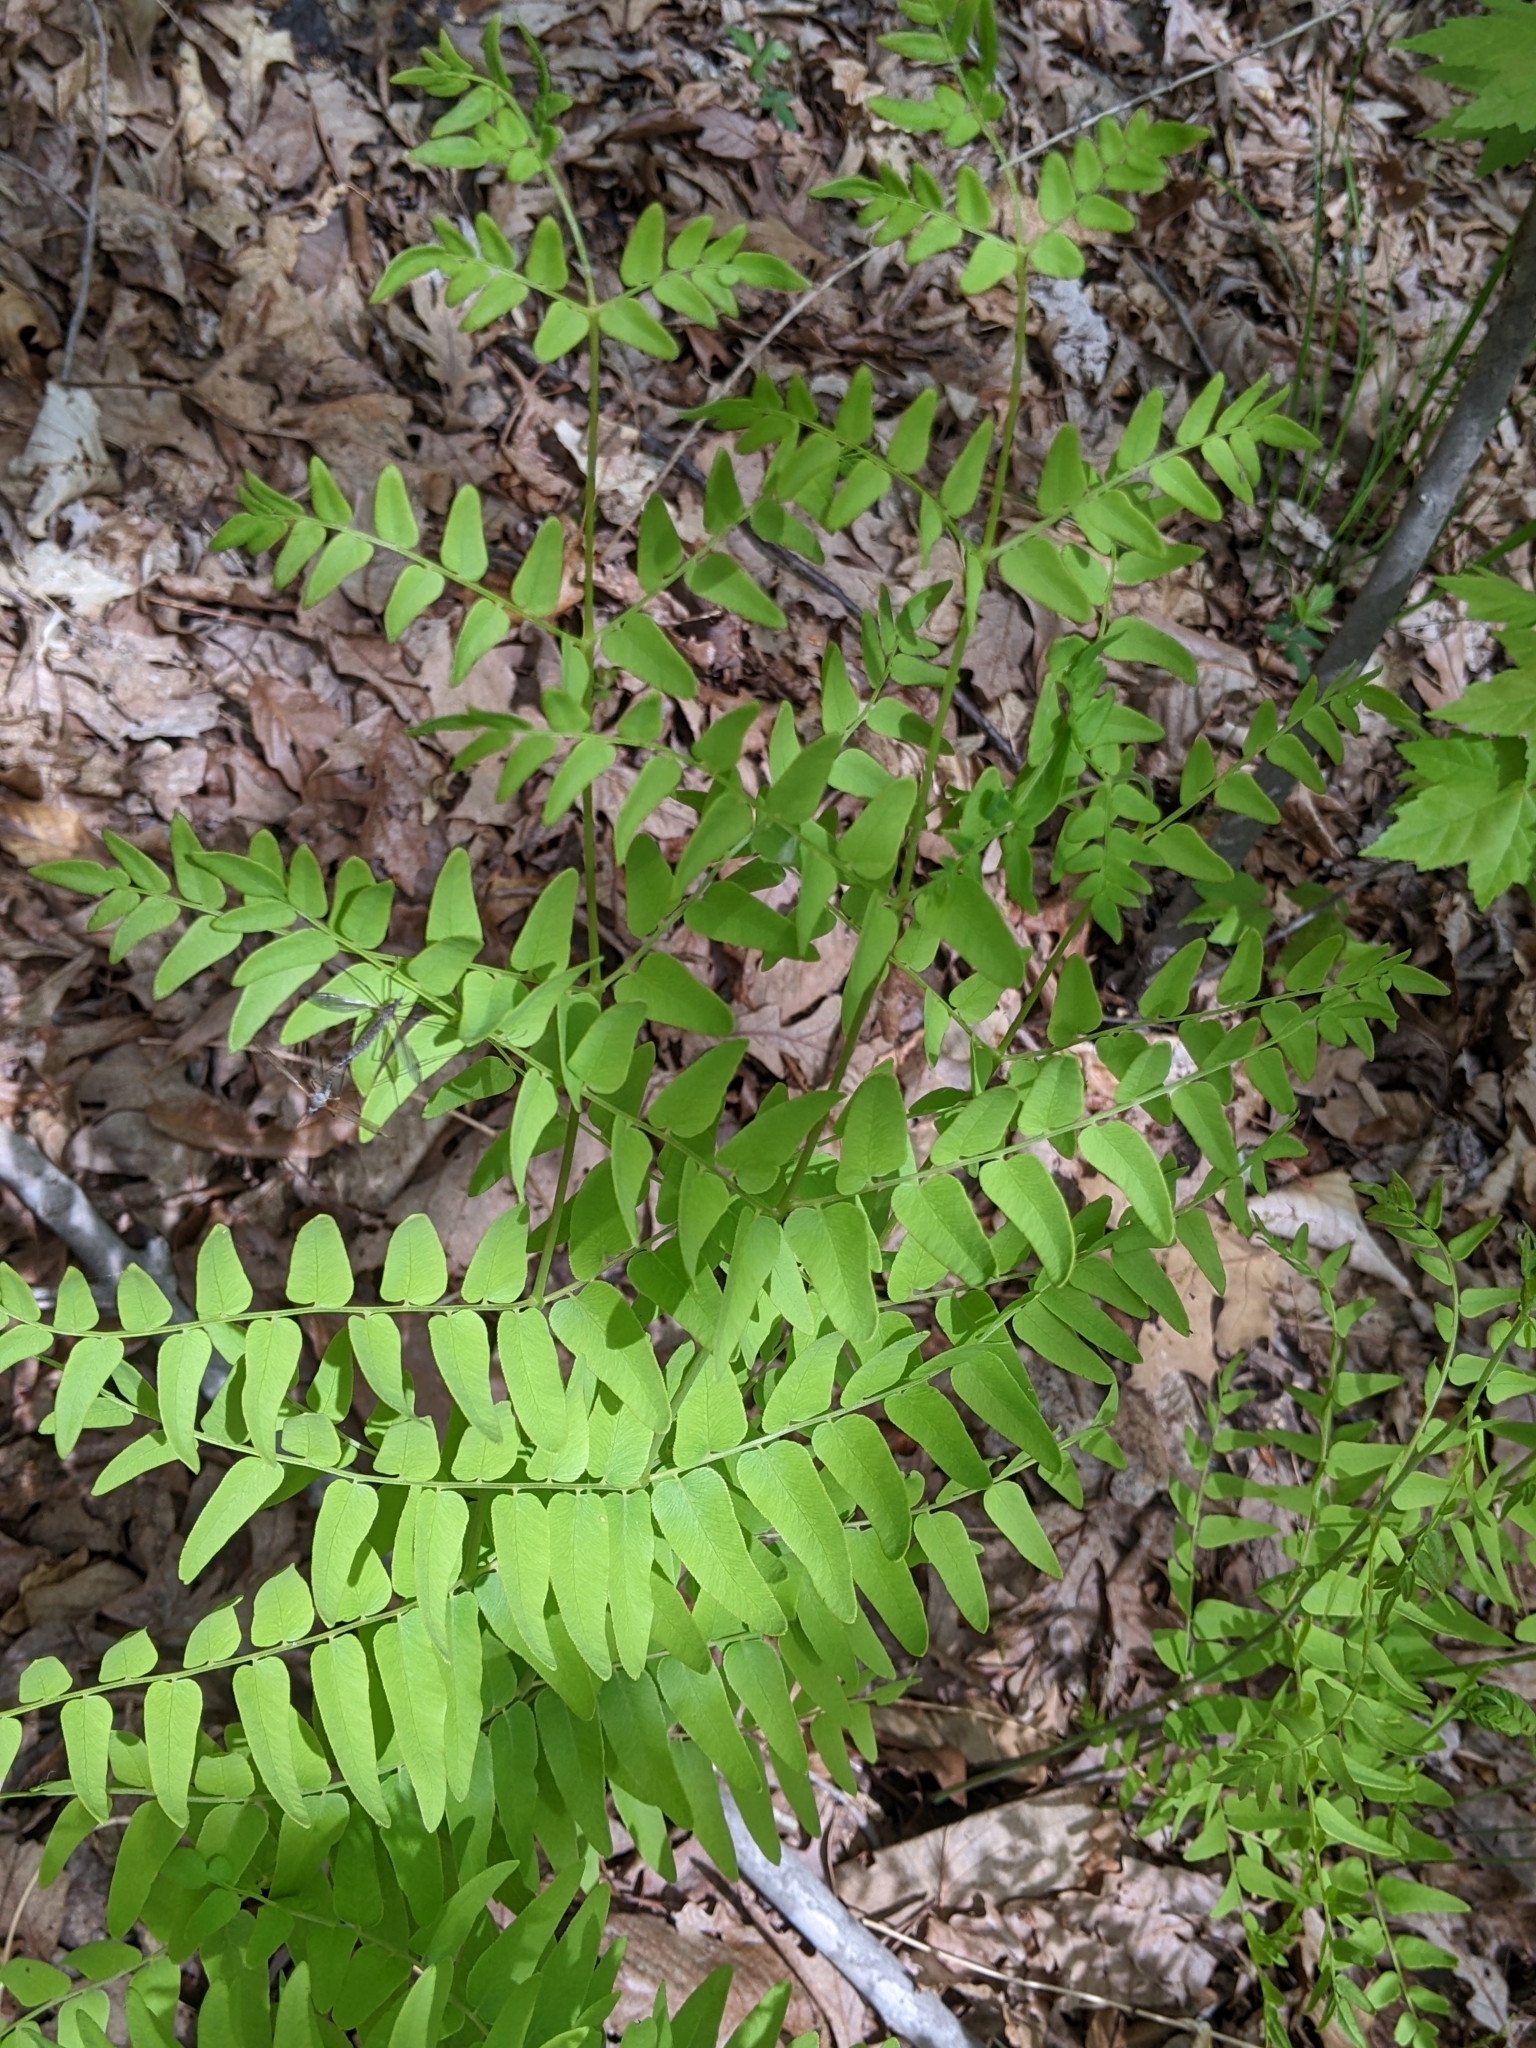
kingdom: Plantae
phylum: Tracheophyta
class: Polypodiopsida
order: Osmundales
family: Osmundaceae
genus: Osmunda
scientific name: Osmunda spectabilis
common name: American royal fern
